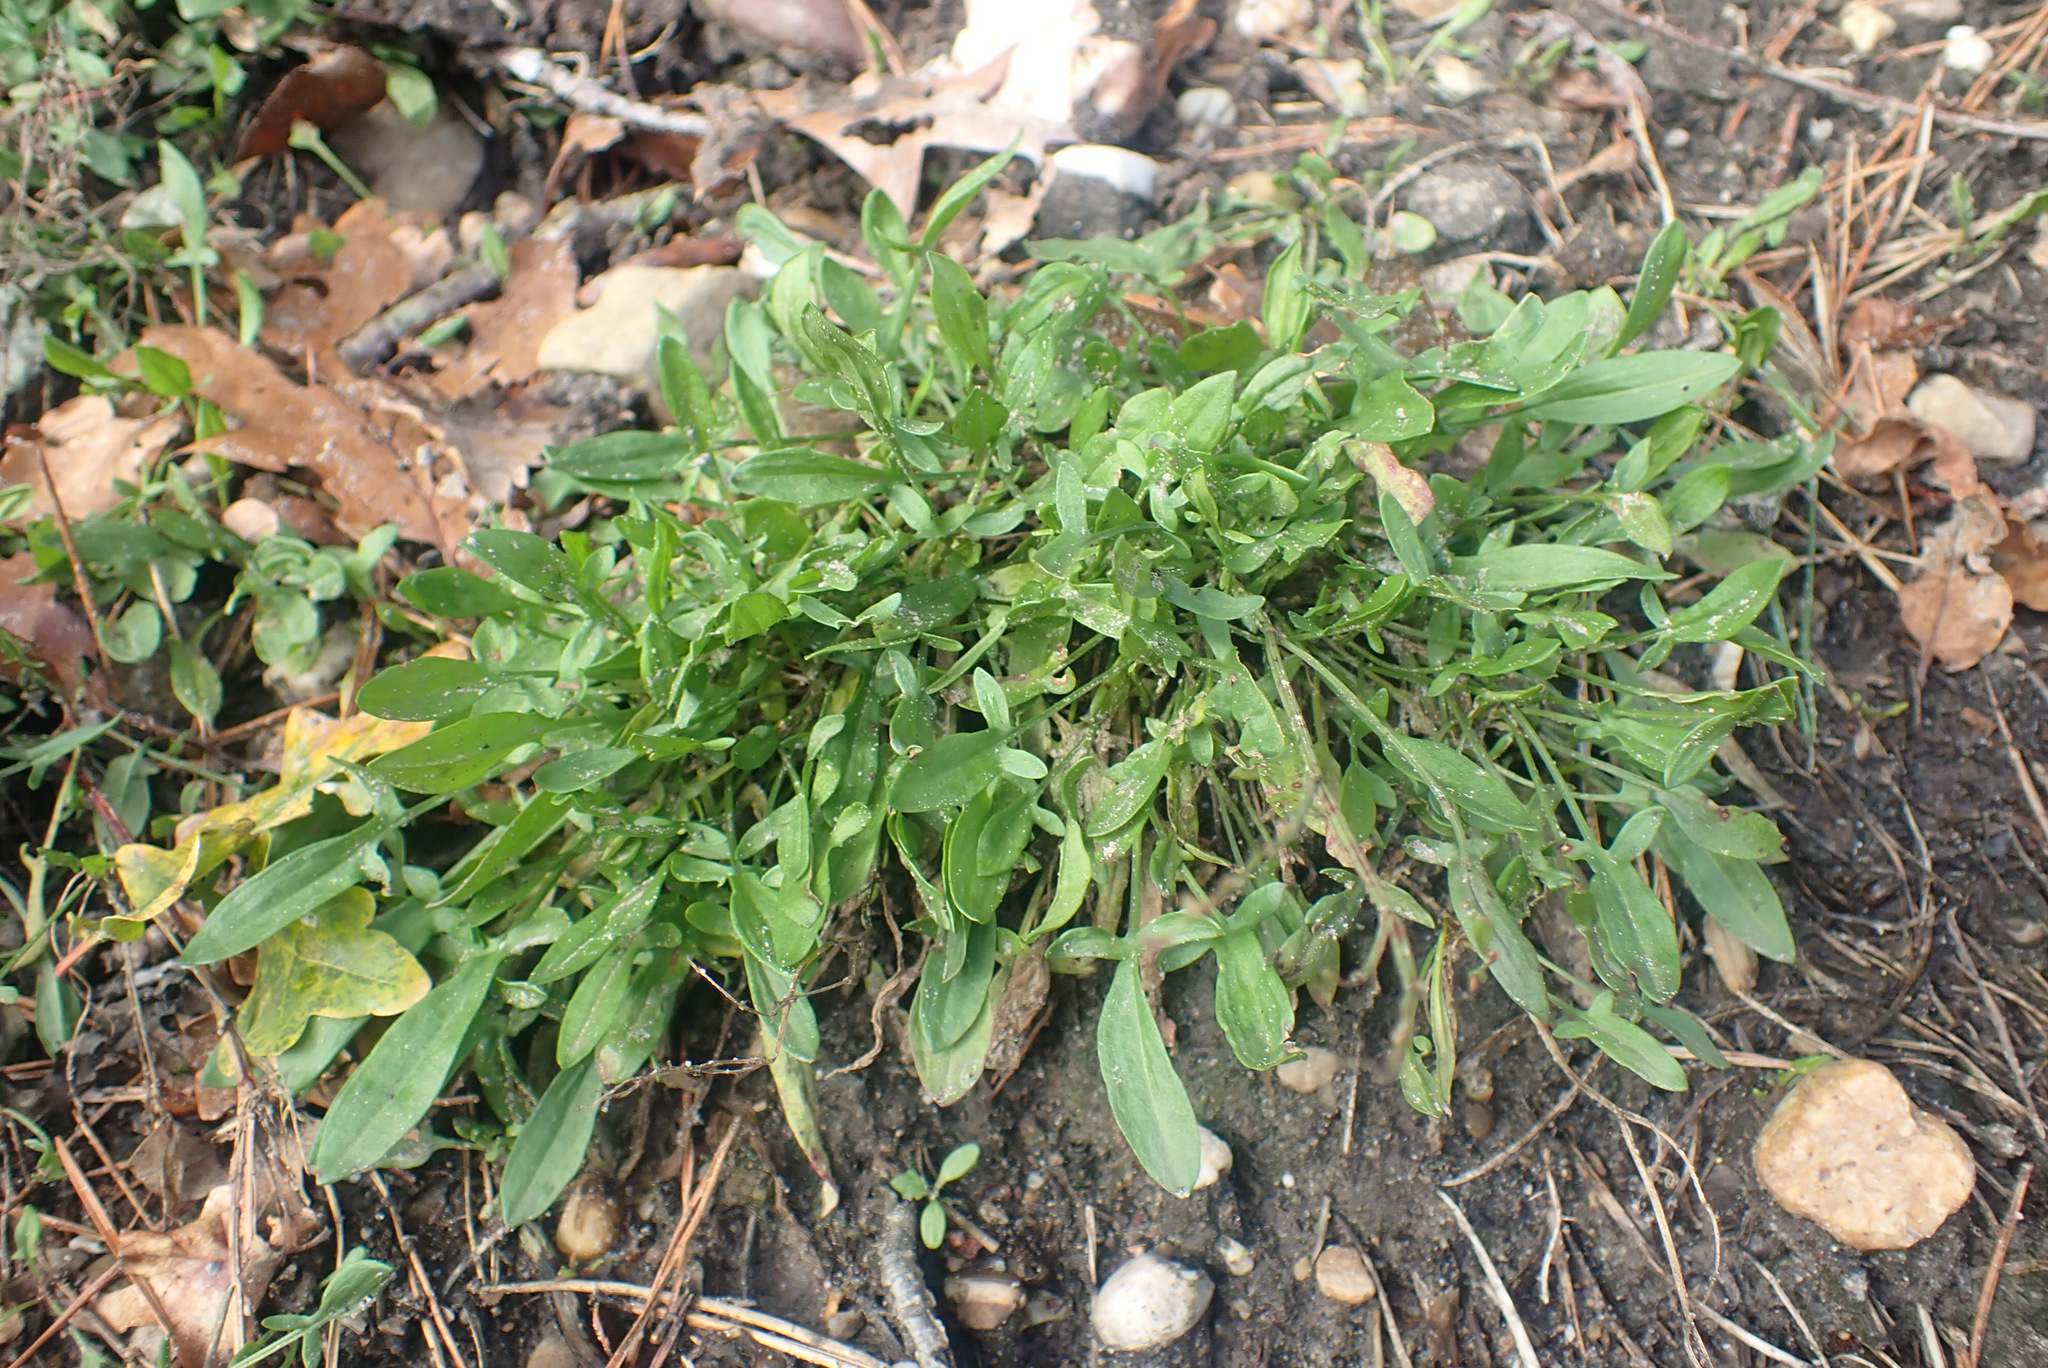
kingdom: Plantae
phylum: Tracheophyta
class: Magnoliopsida
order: Caryophyllales
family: Polygonaceae
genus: Rumex
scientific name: Rumex acetosella
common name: Common sheep sorrel
